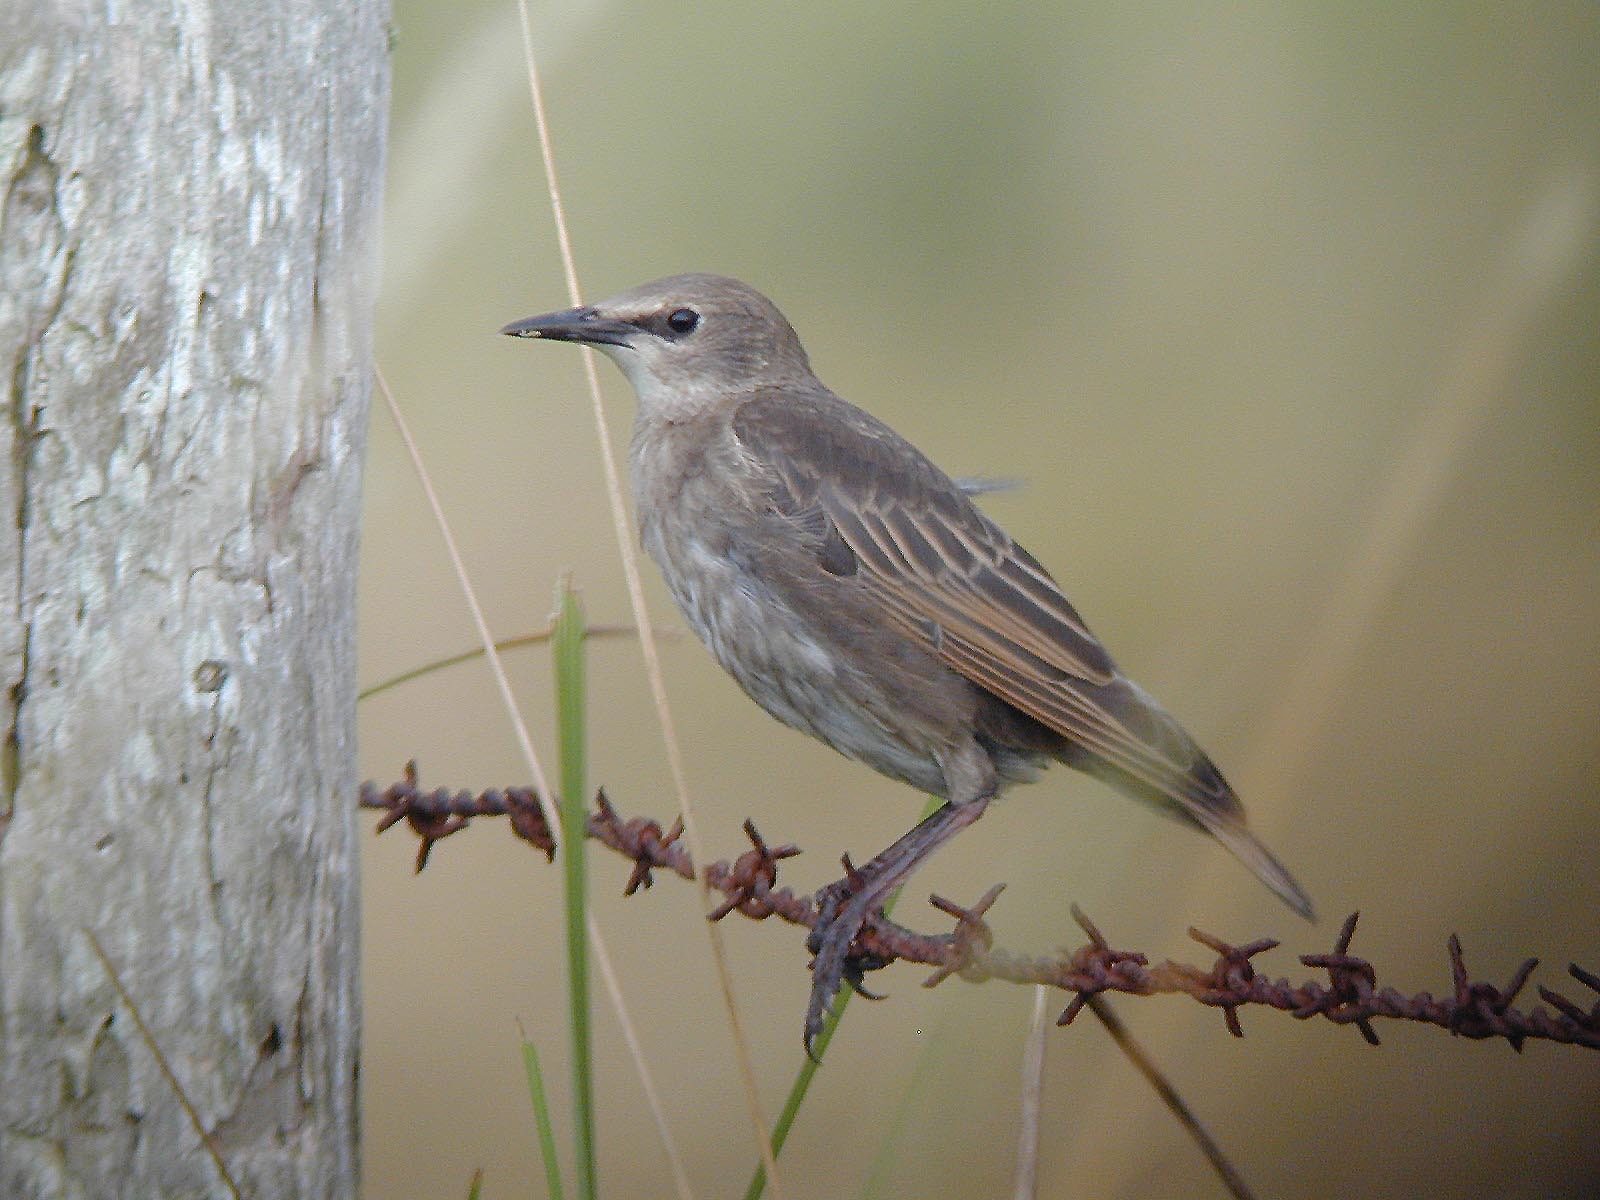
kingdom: Animalia
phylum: Chordata
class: Aves
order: Passeriformes
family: Sturnidae
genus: Sturnus
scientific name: Sturnus vulgaris
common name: Common starling
